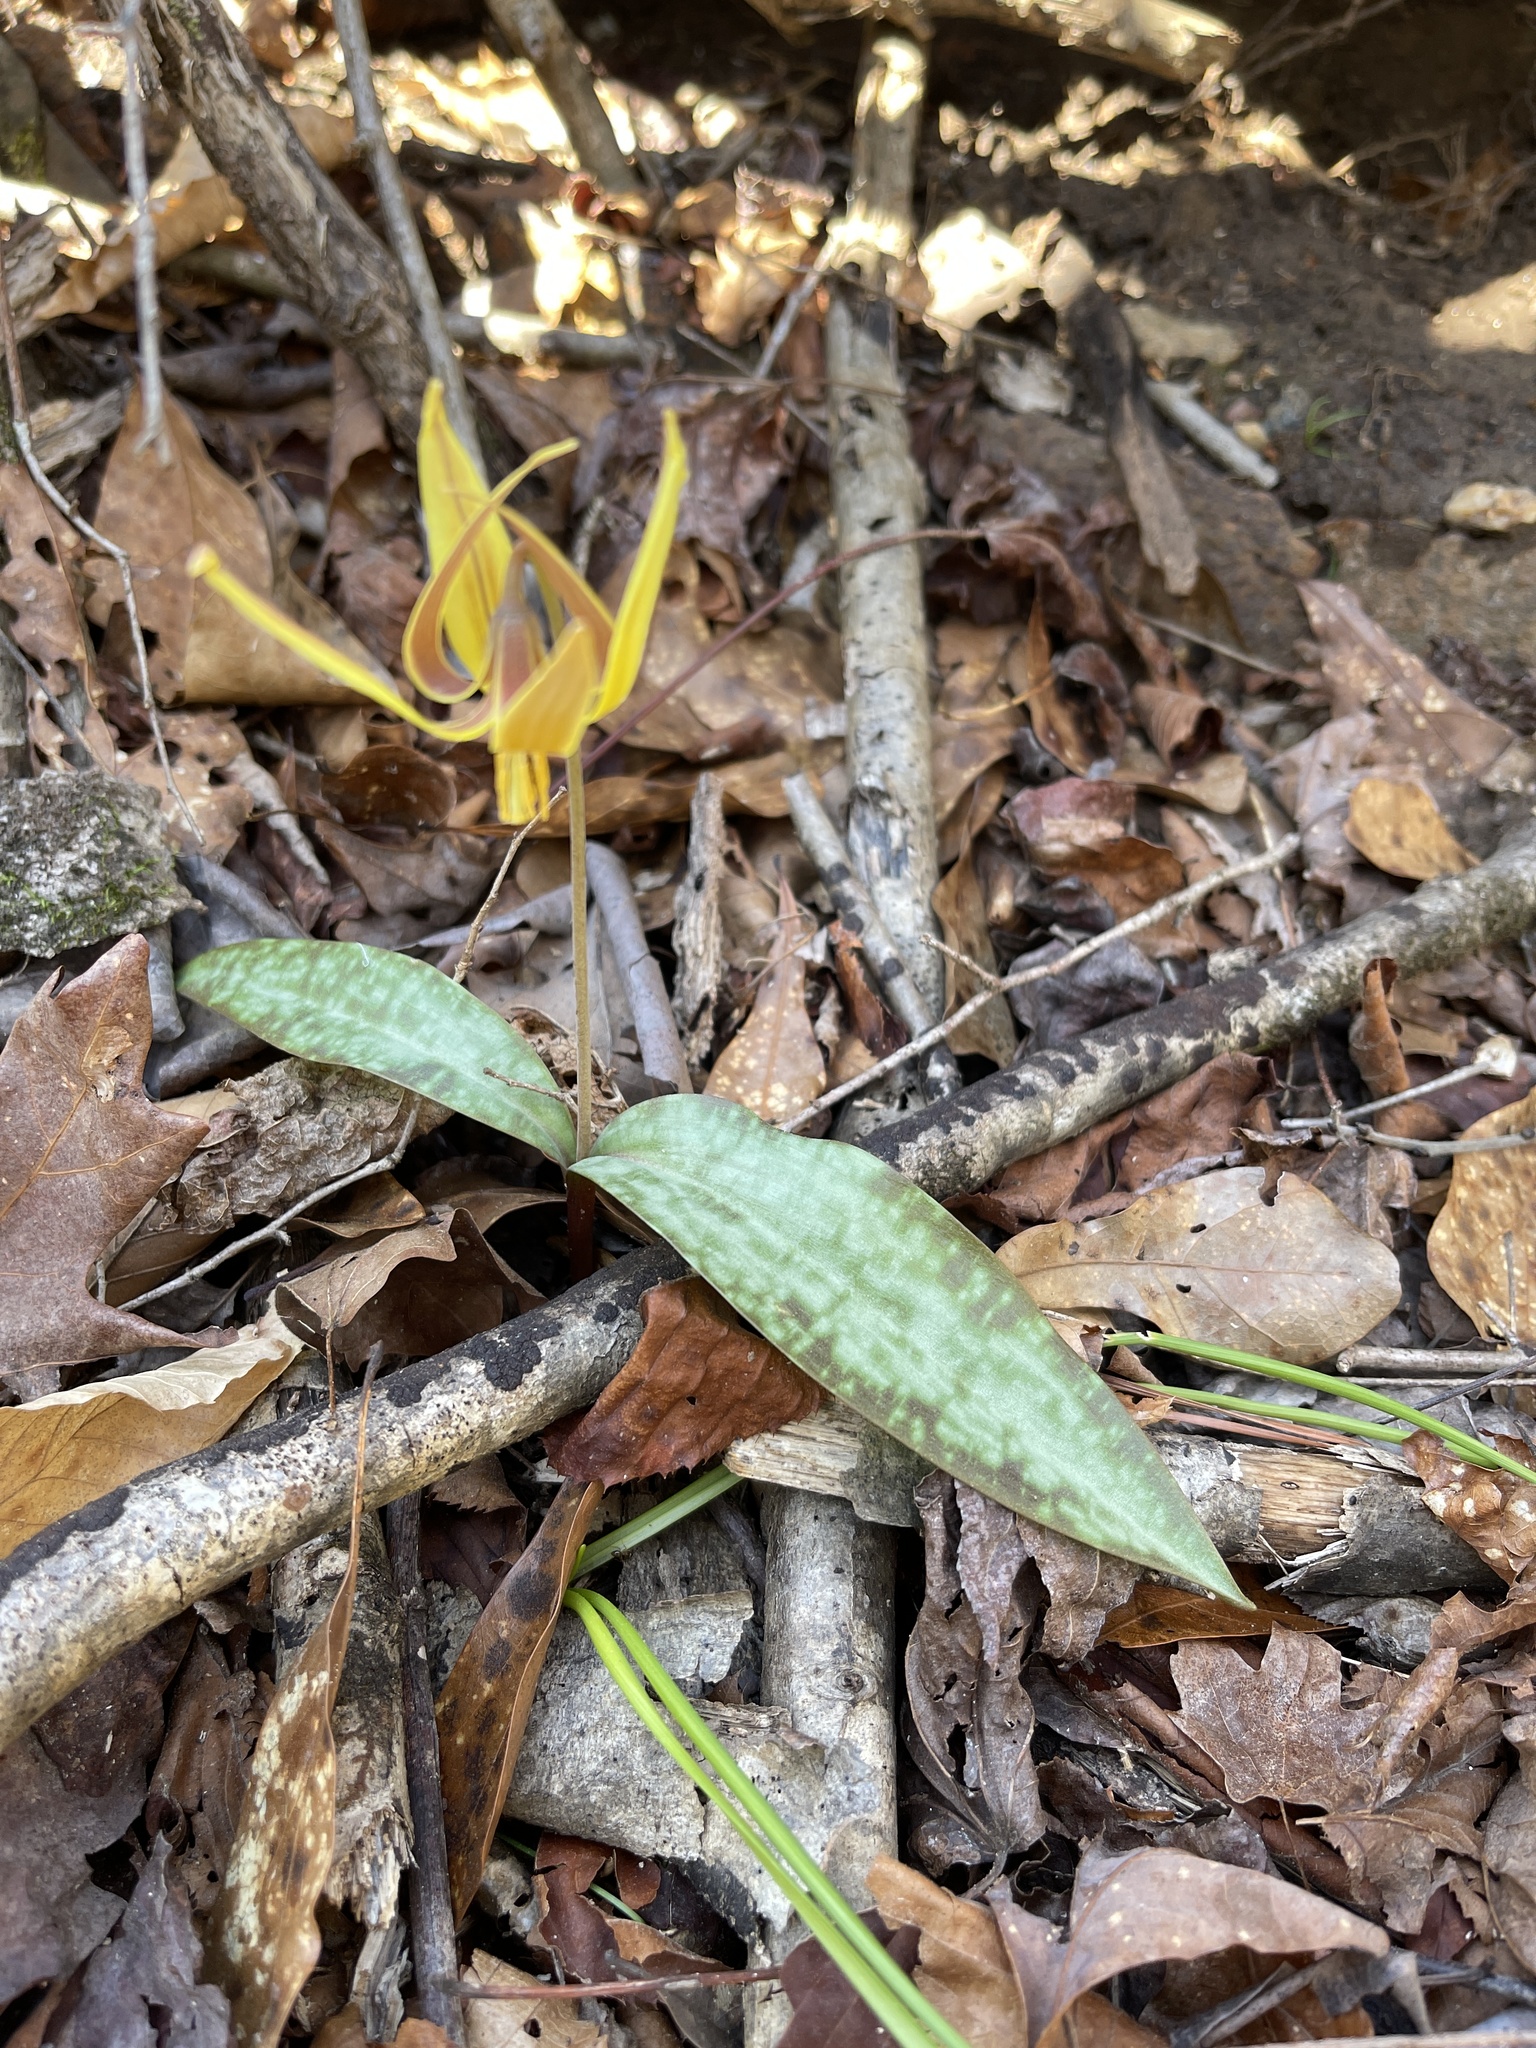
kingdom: Plantae
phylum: Tracheophyta
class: Liliopsida
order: Liliales
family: Liliaceae
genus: Erythronium
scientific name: Erythronium umbilicatum
